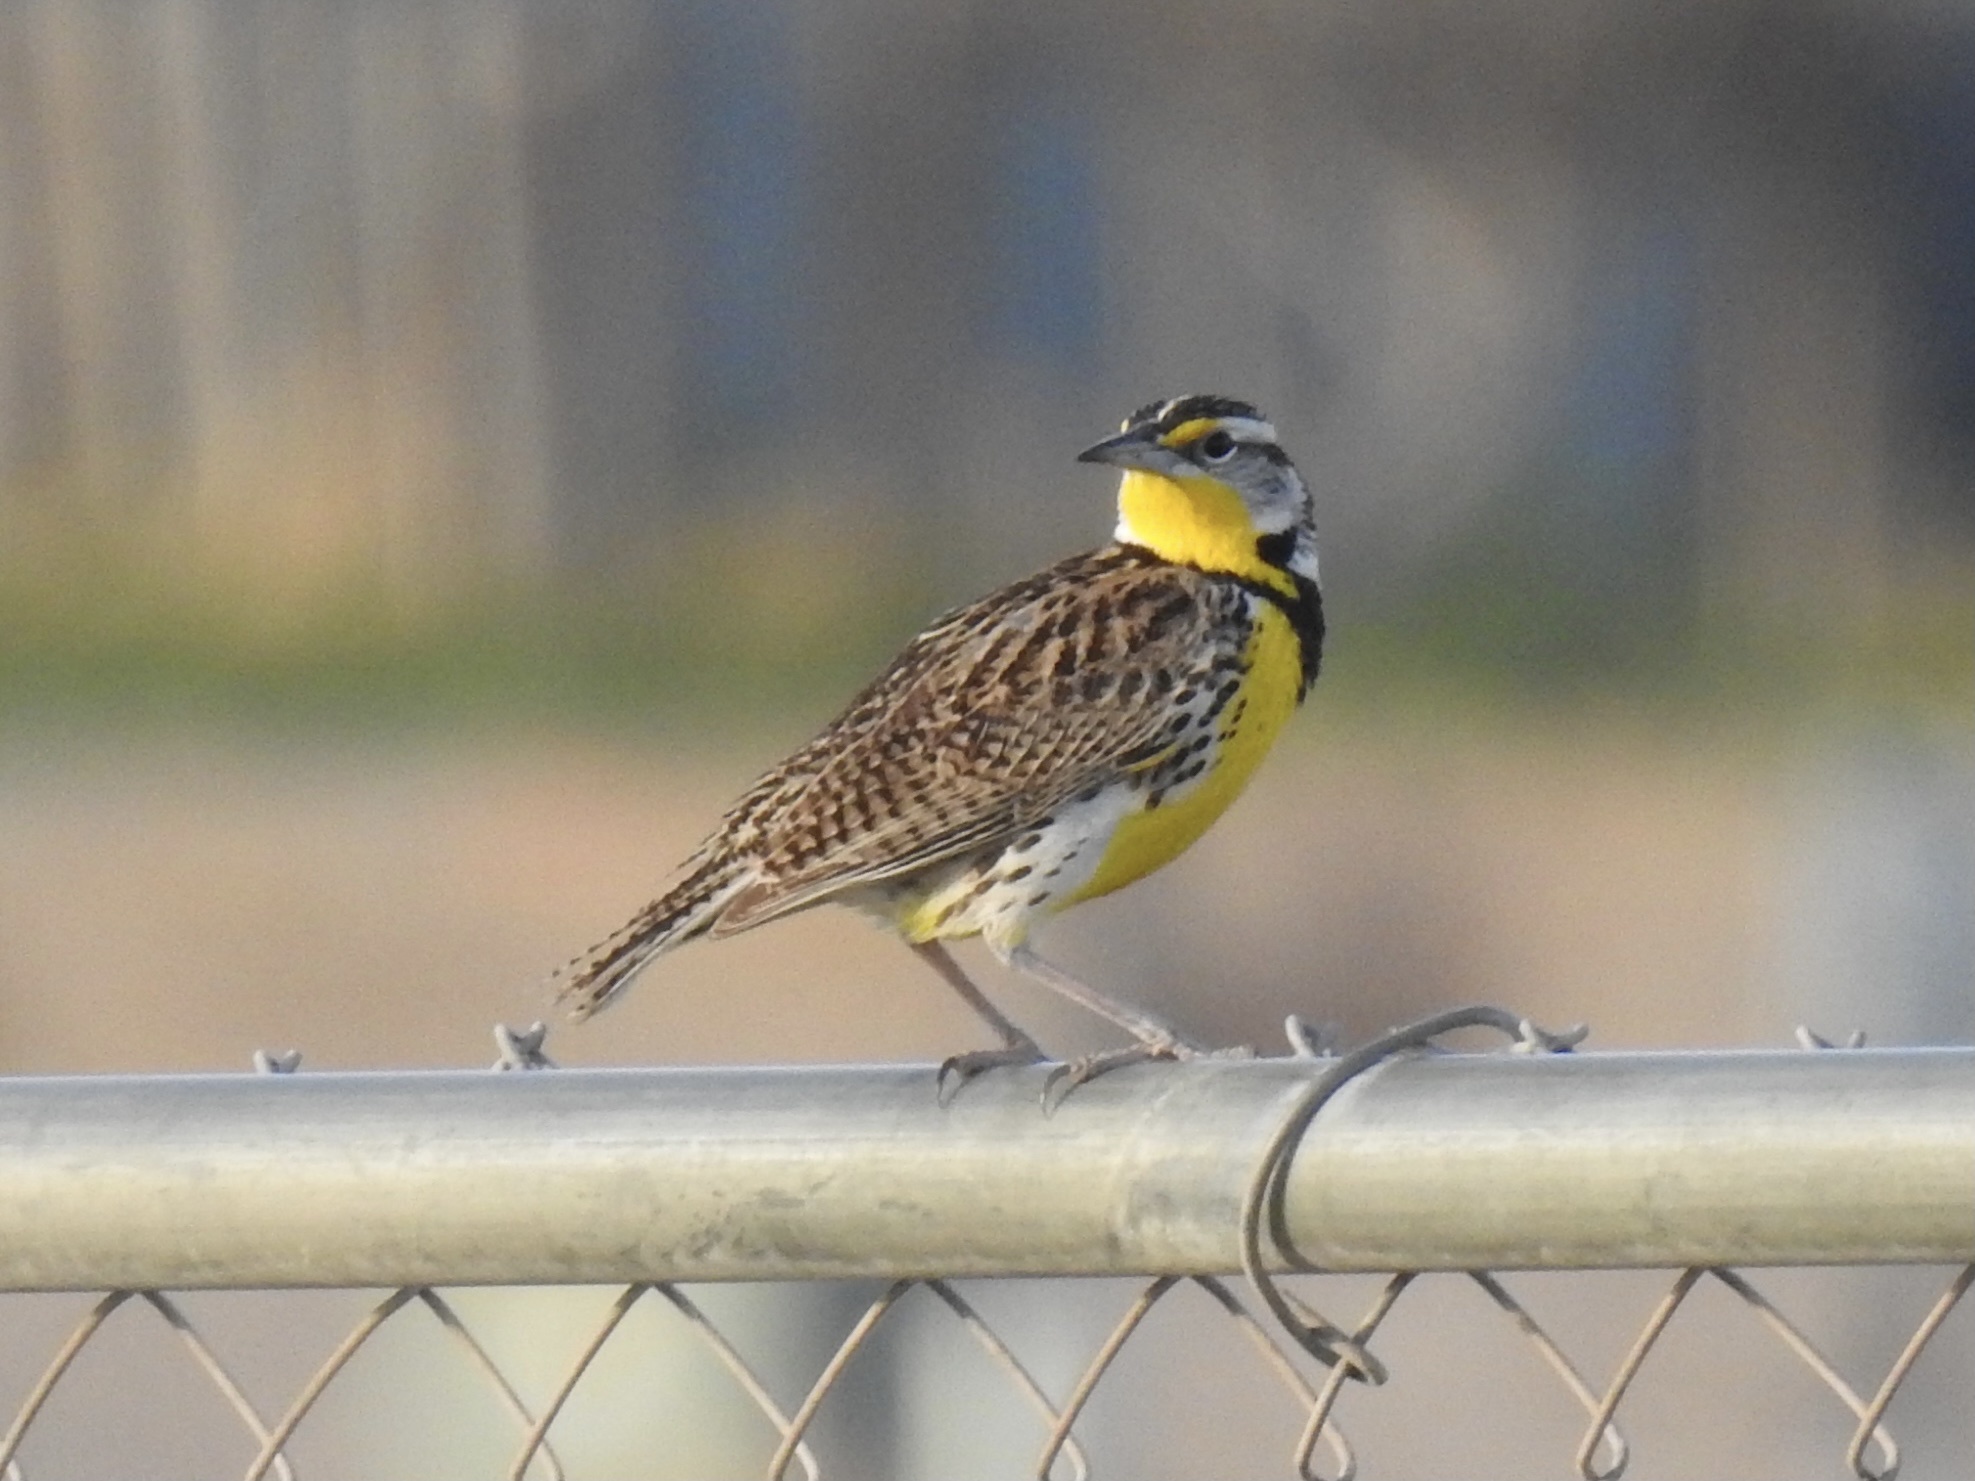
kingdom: Animalia
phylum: Chordata
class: Aves
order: Passeriformes
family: Icteridae
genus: Sturnella
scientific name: Sturnella neglecta
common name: Western meadowlark
